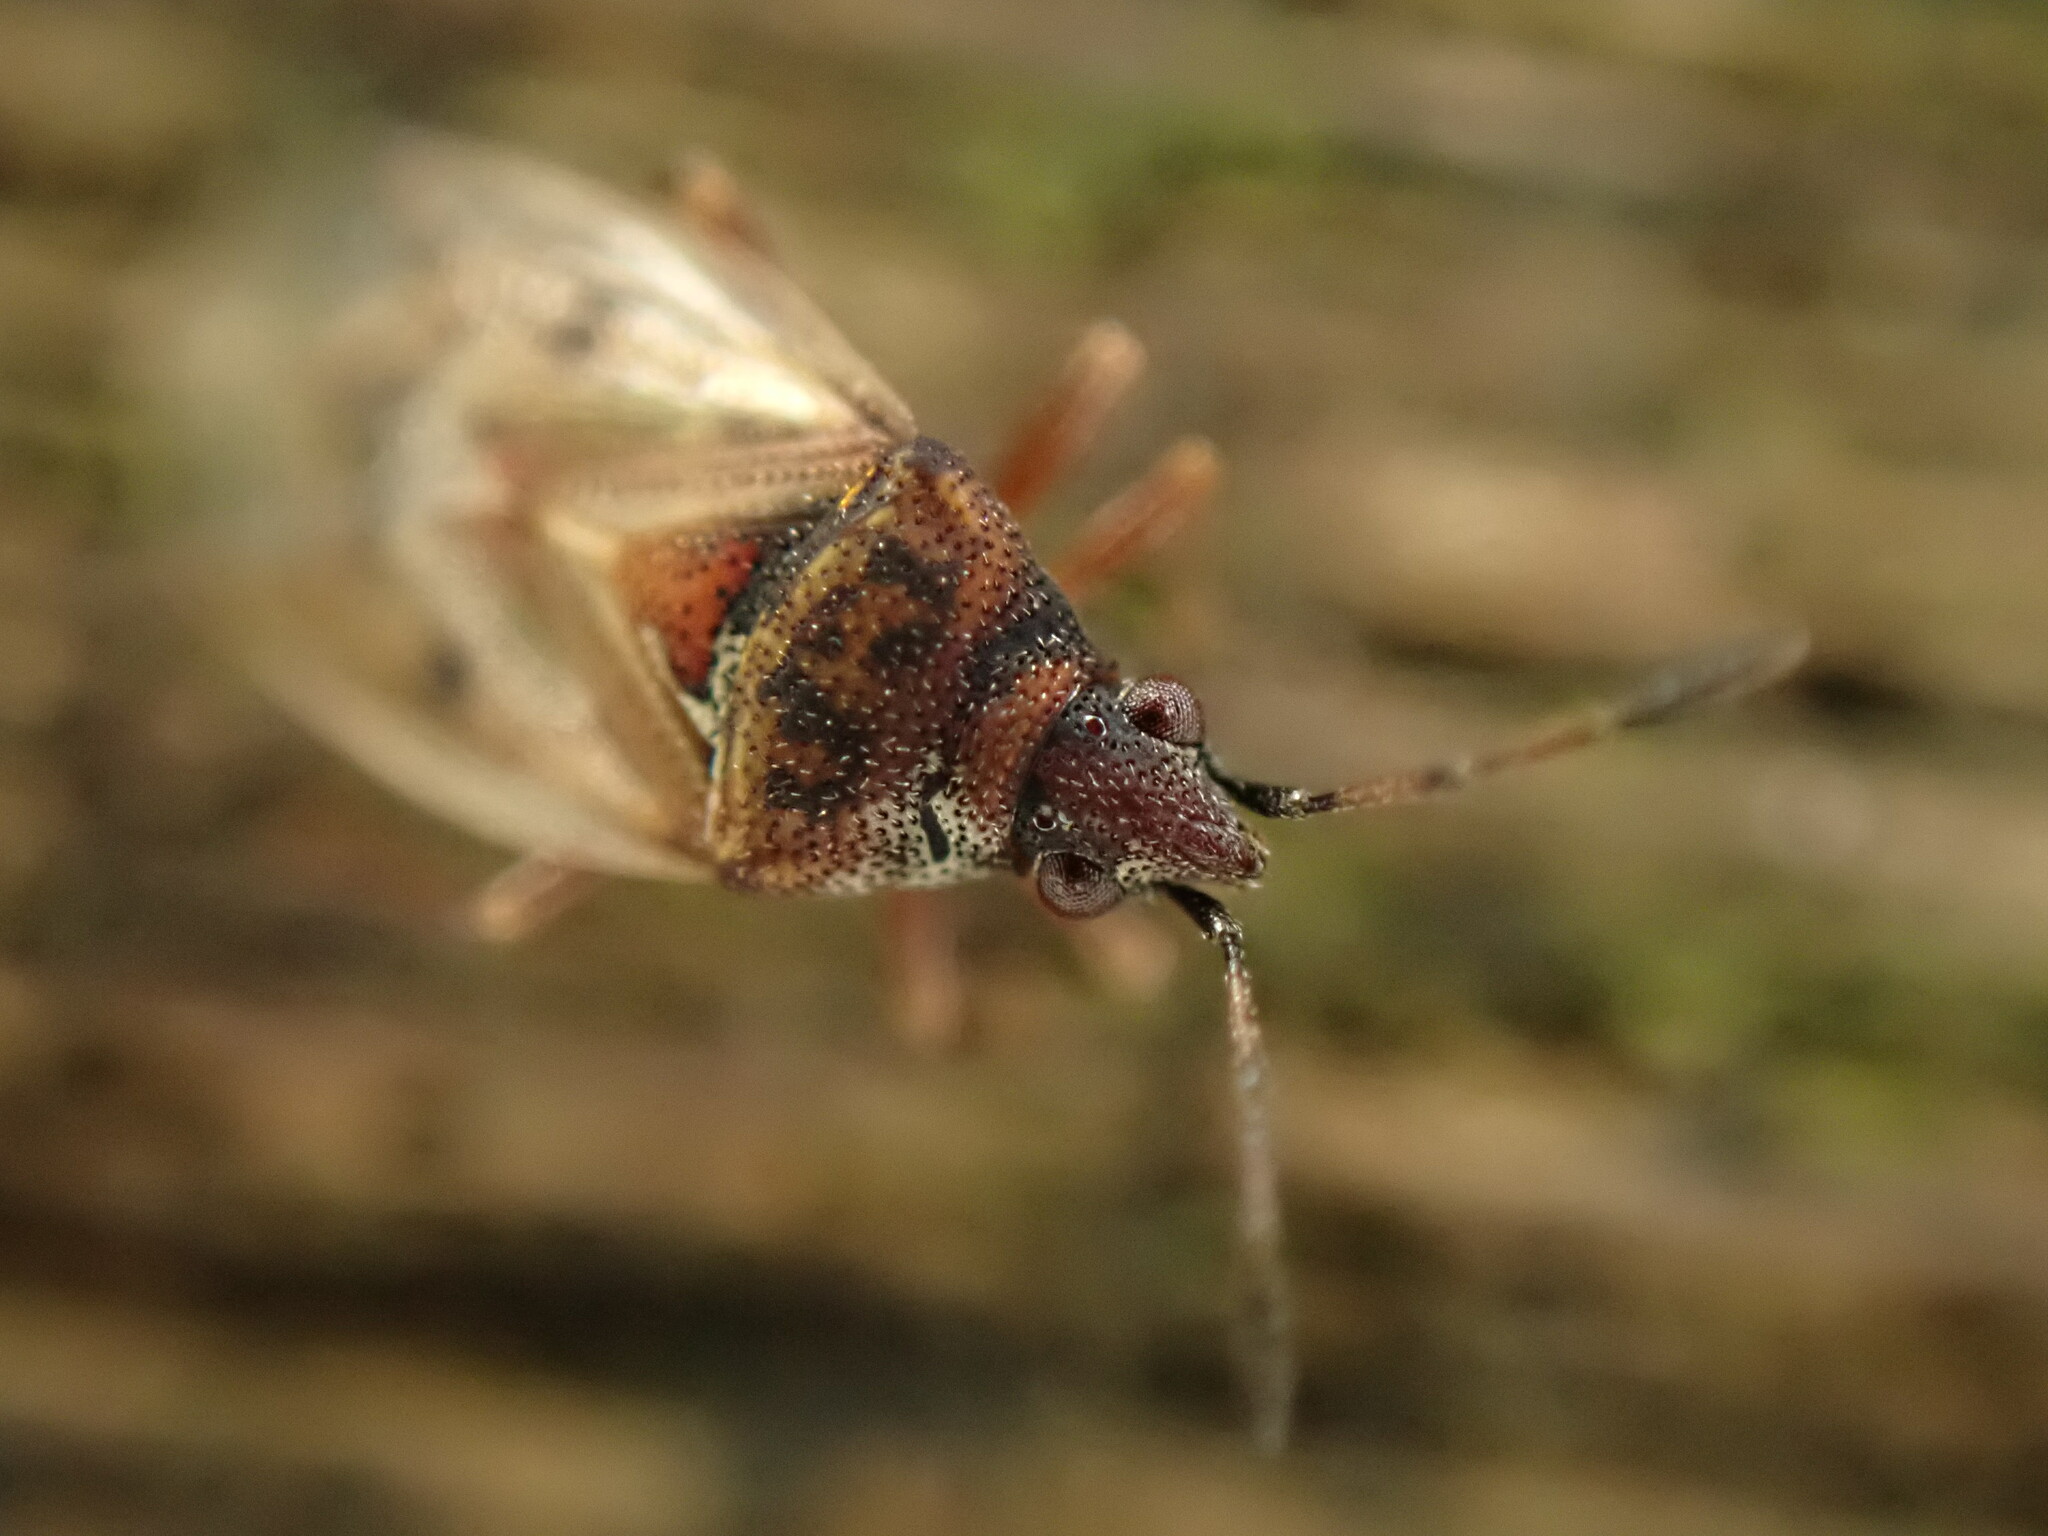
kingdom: Animalia
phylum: Arthropoda
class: Insecta
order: Hemiptera
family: Lygaeidae
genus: Kleidocerys
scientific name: Kleidocerys resedae
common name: Birch catkin bug
